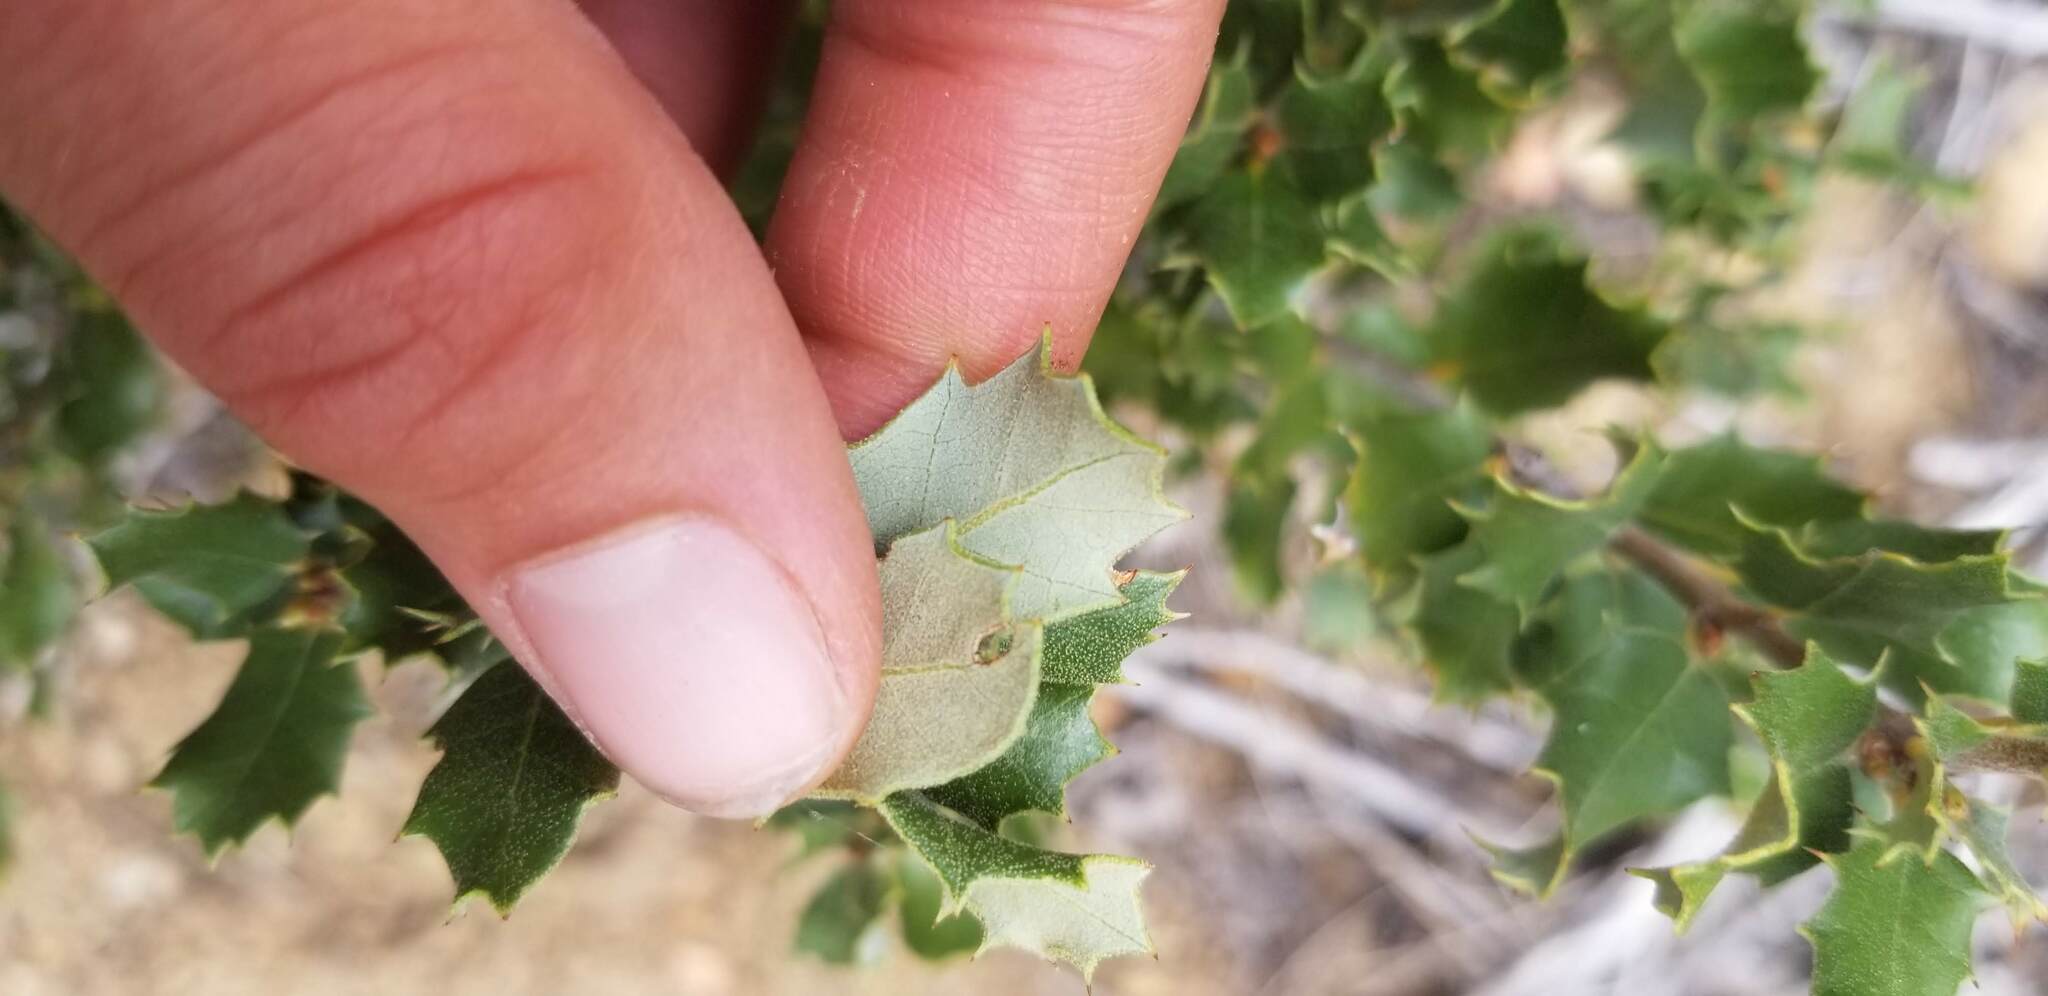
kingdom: Plantae
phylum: Tracheophyta
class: Magnoliopsida
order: Fagales
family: Fagaceae
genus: Quercus
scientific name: Quercus chrysolepis
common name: Canyon live oak
